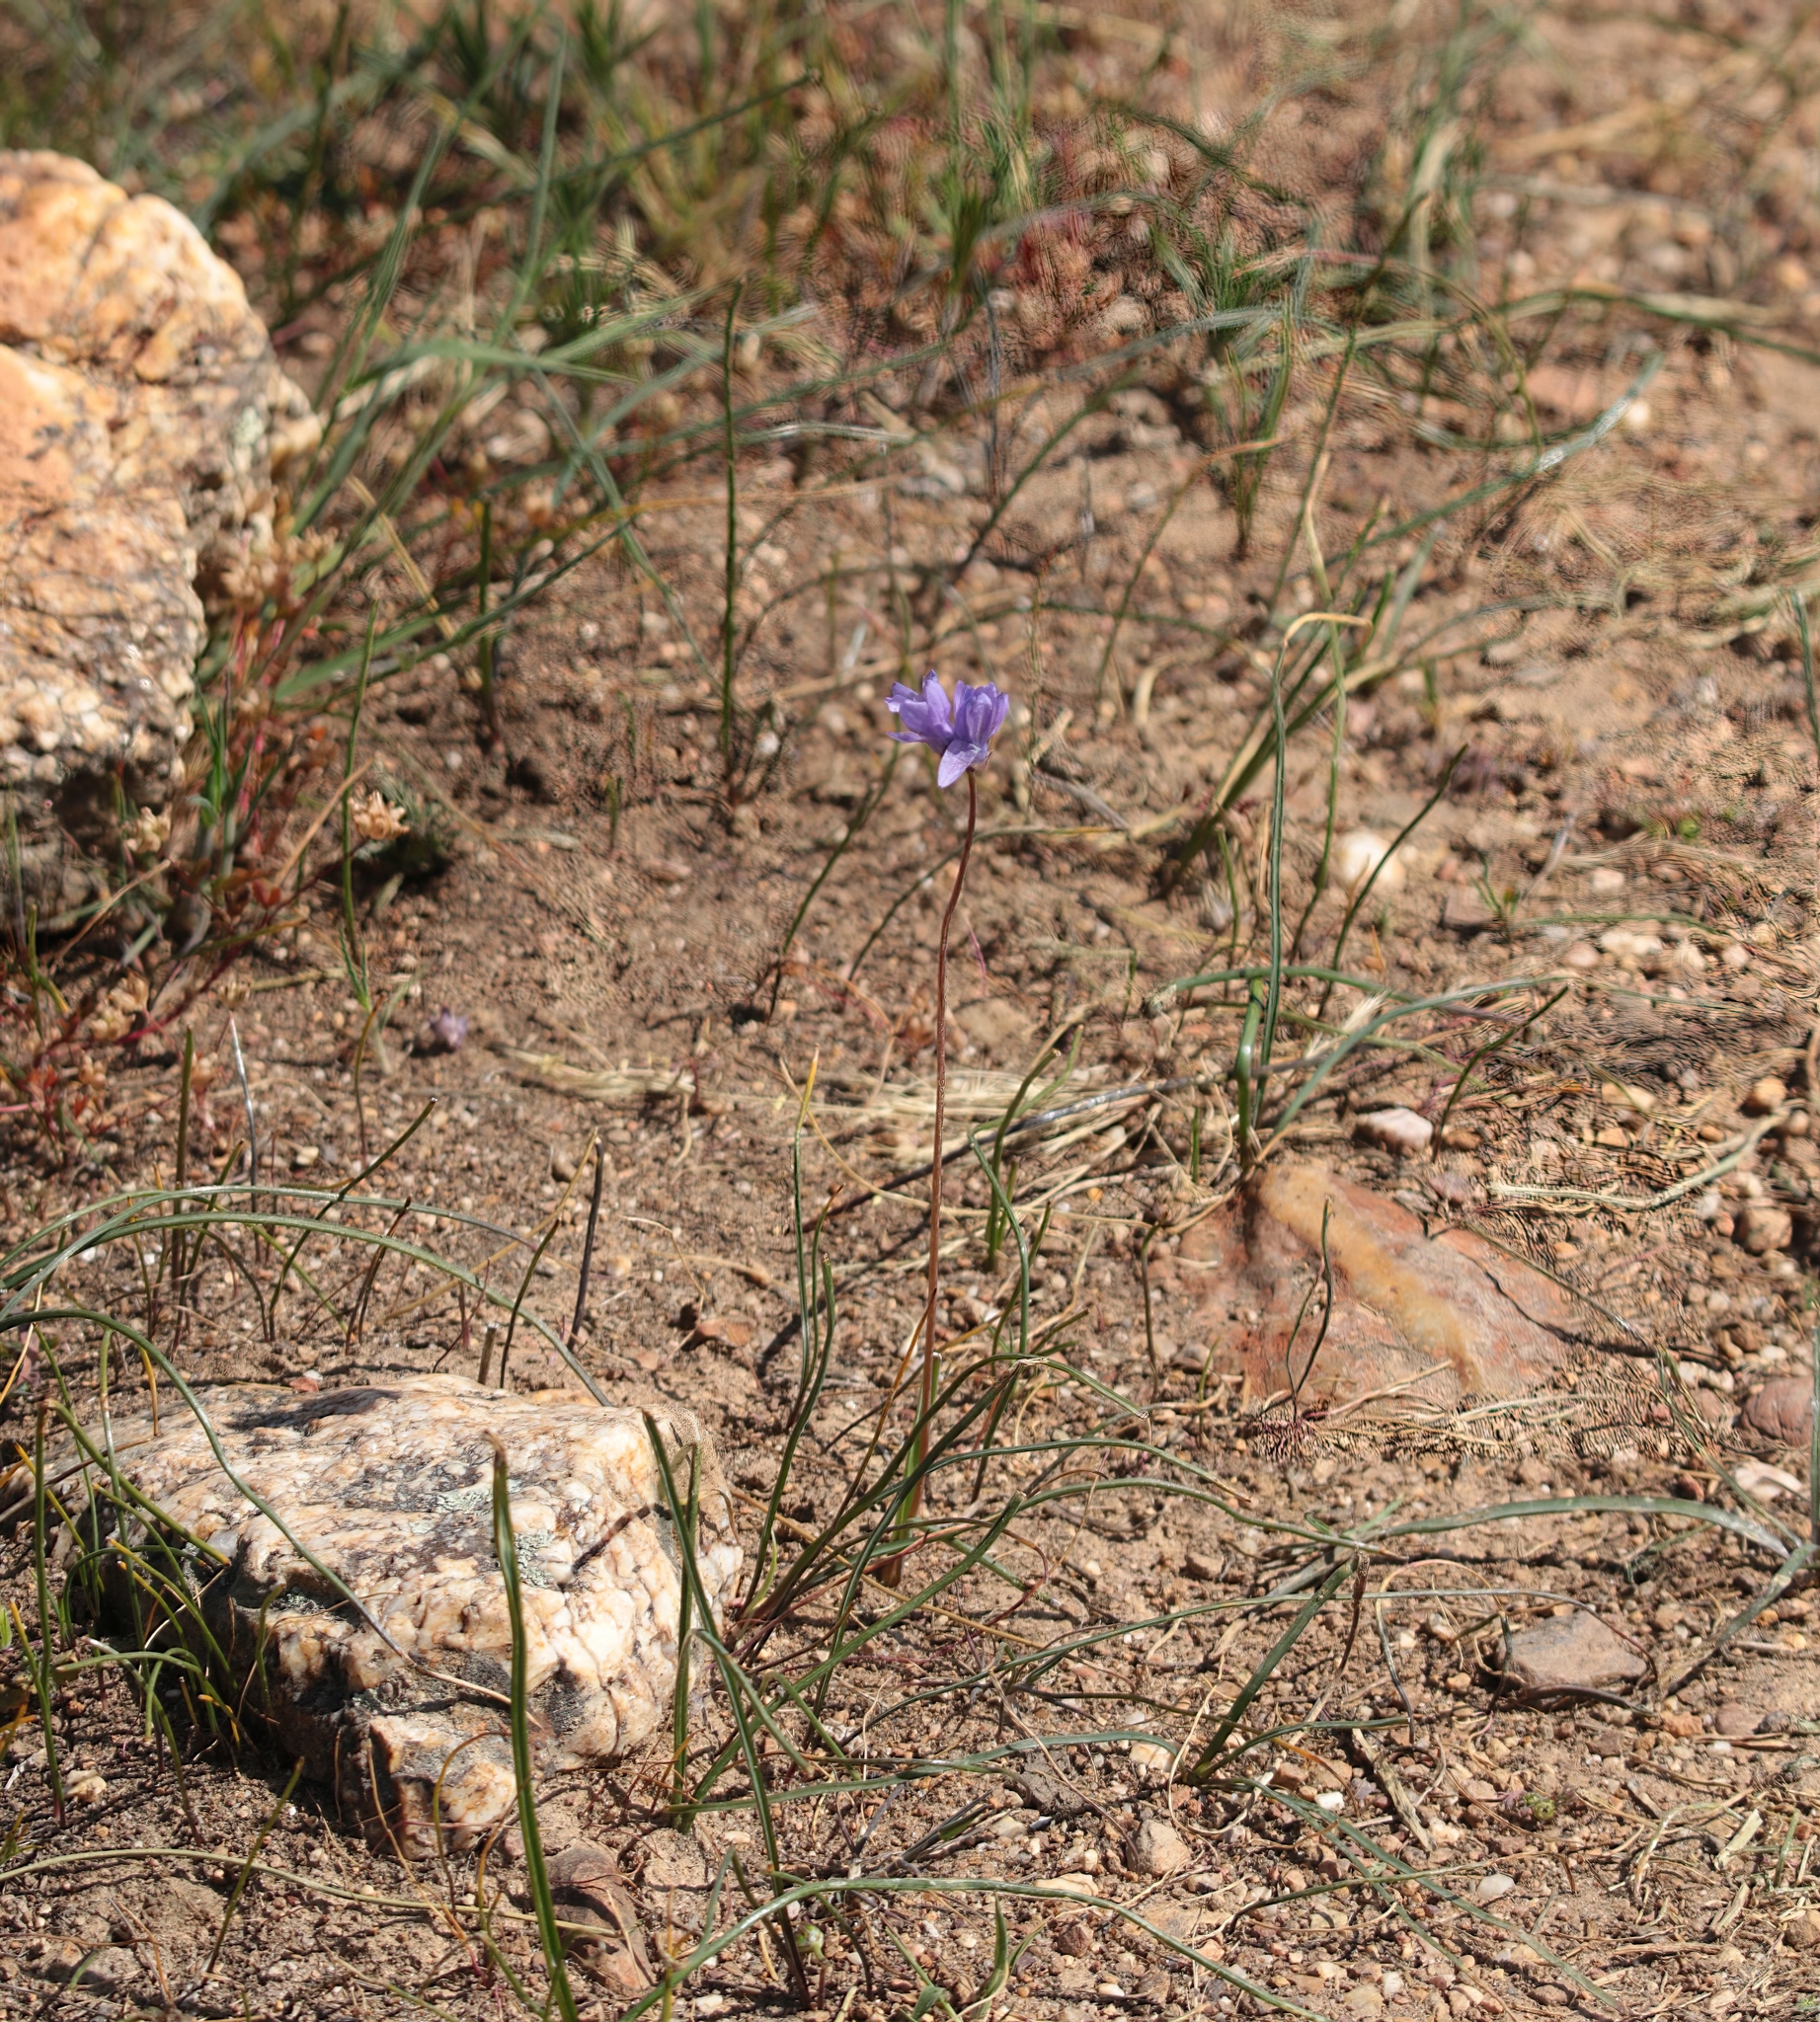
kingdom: Plantae
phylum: Tracheophyta
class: Liliopsida
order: Asparagales
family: Asparagaceae
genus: Dipterostemon
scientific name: Dipterostemon capitatus
